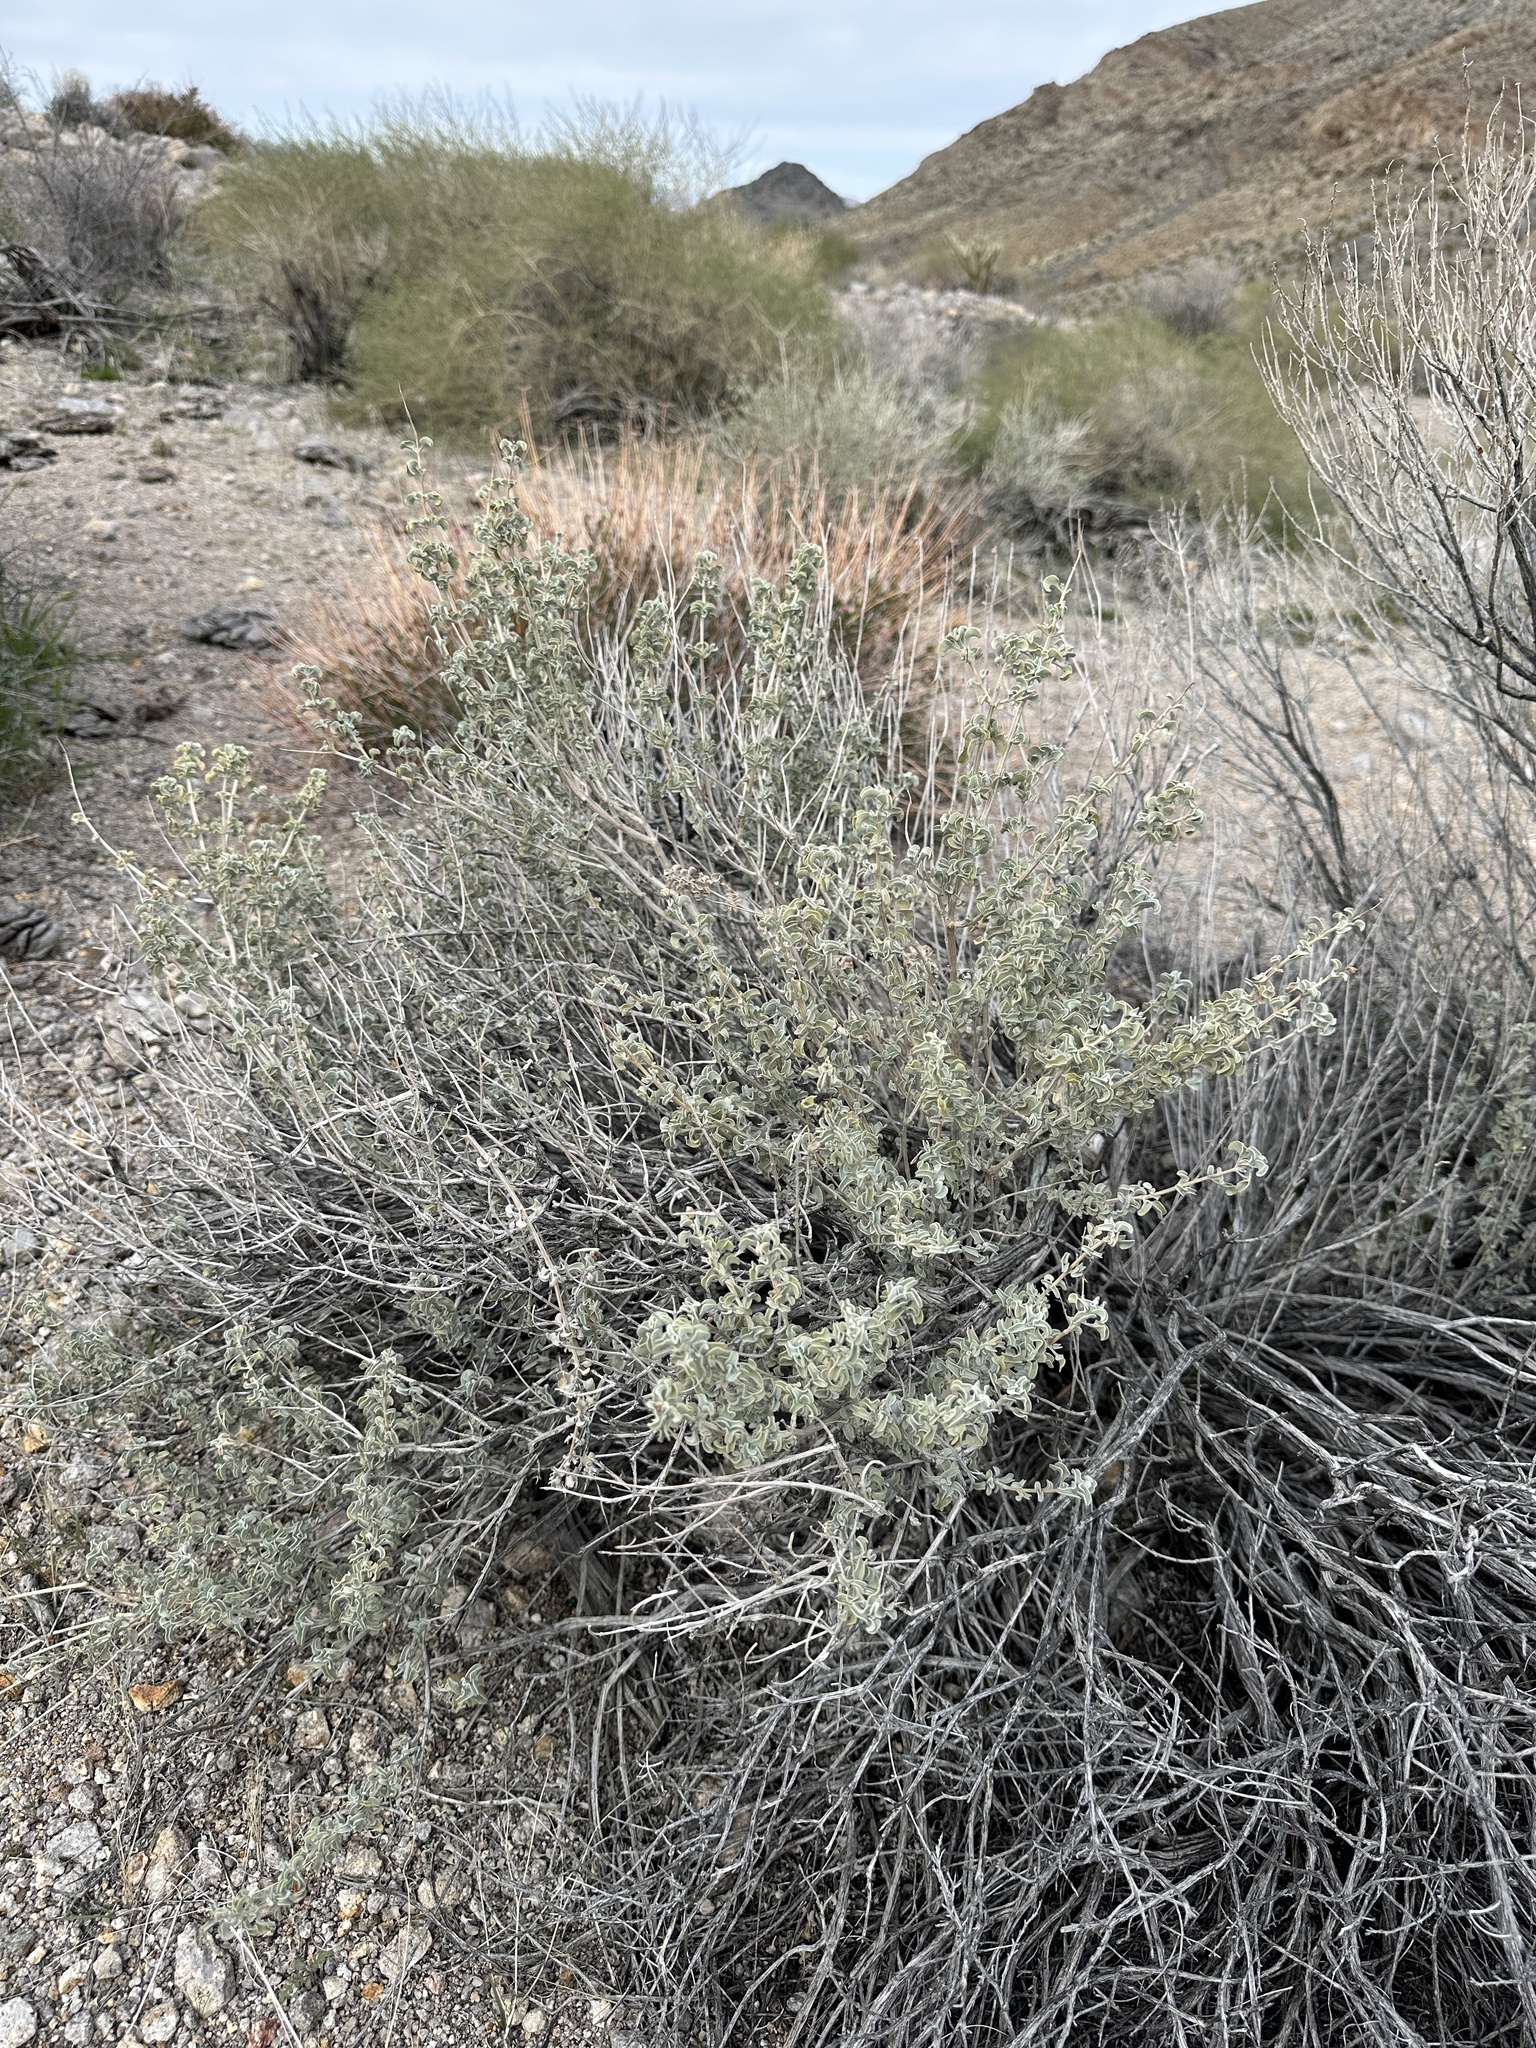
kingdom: Plantae
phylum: Tracheophyta
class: Magnoliopsida
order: Lamiales
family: Lamiaceae
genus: Salvia
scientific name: Salvia dorrii
